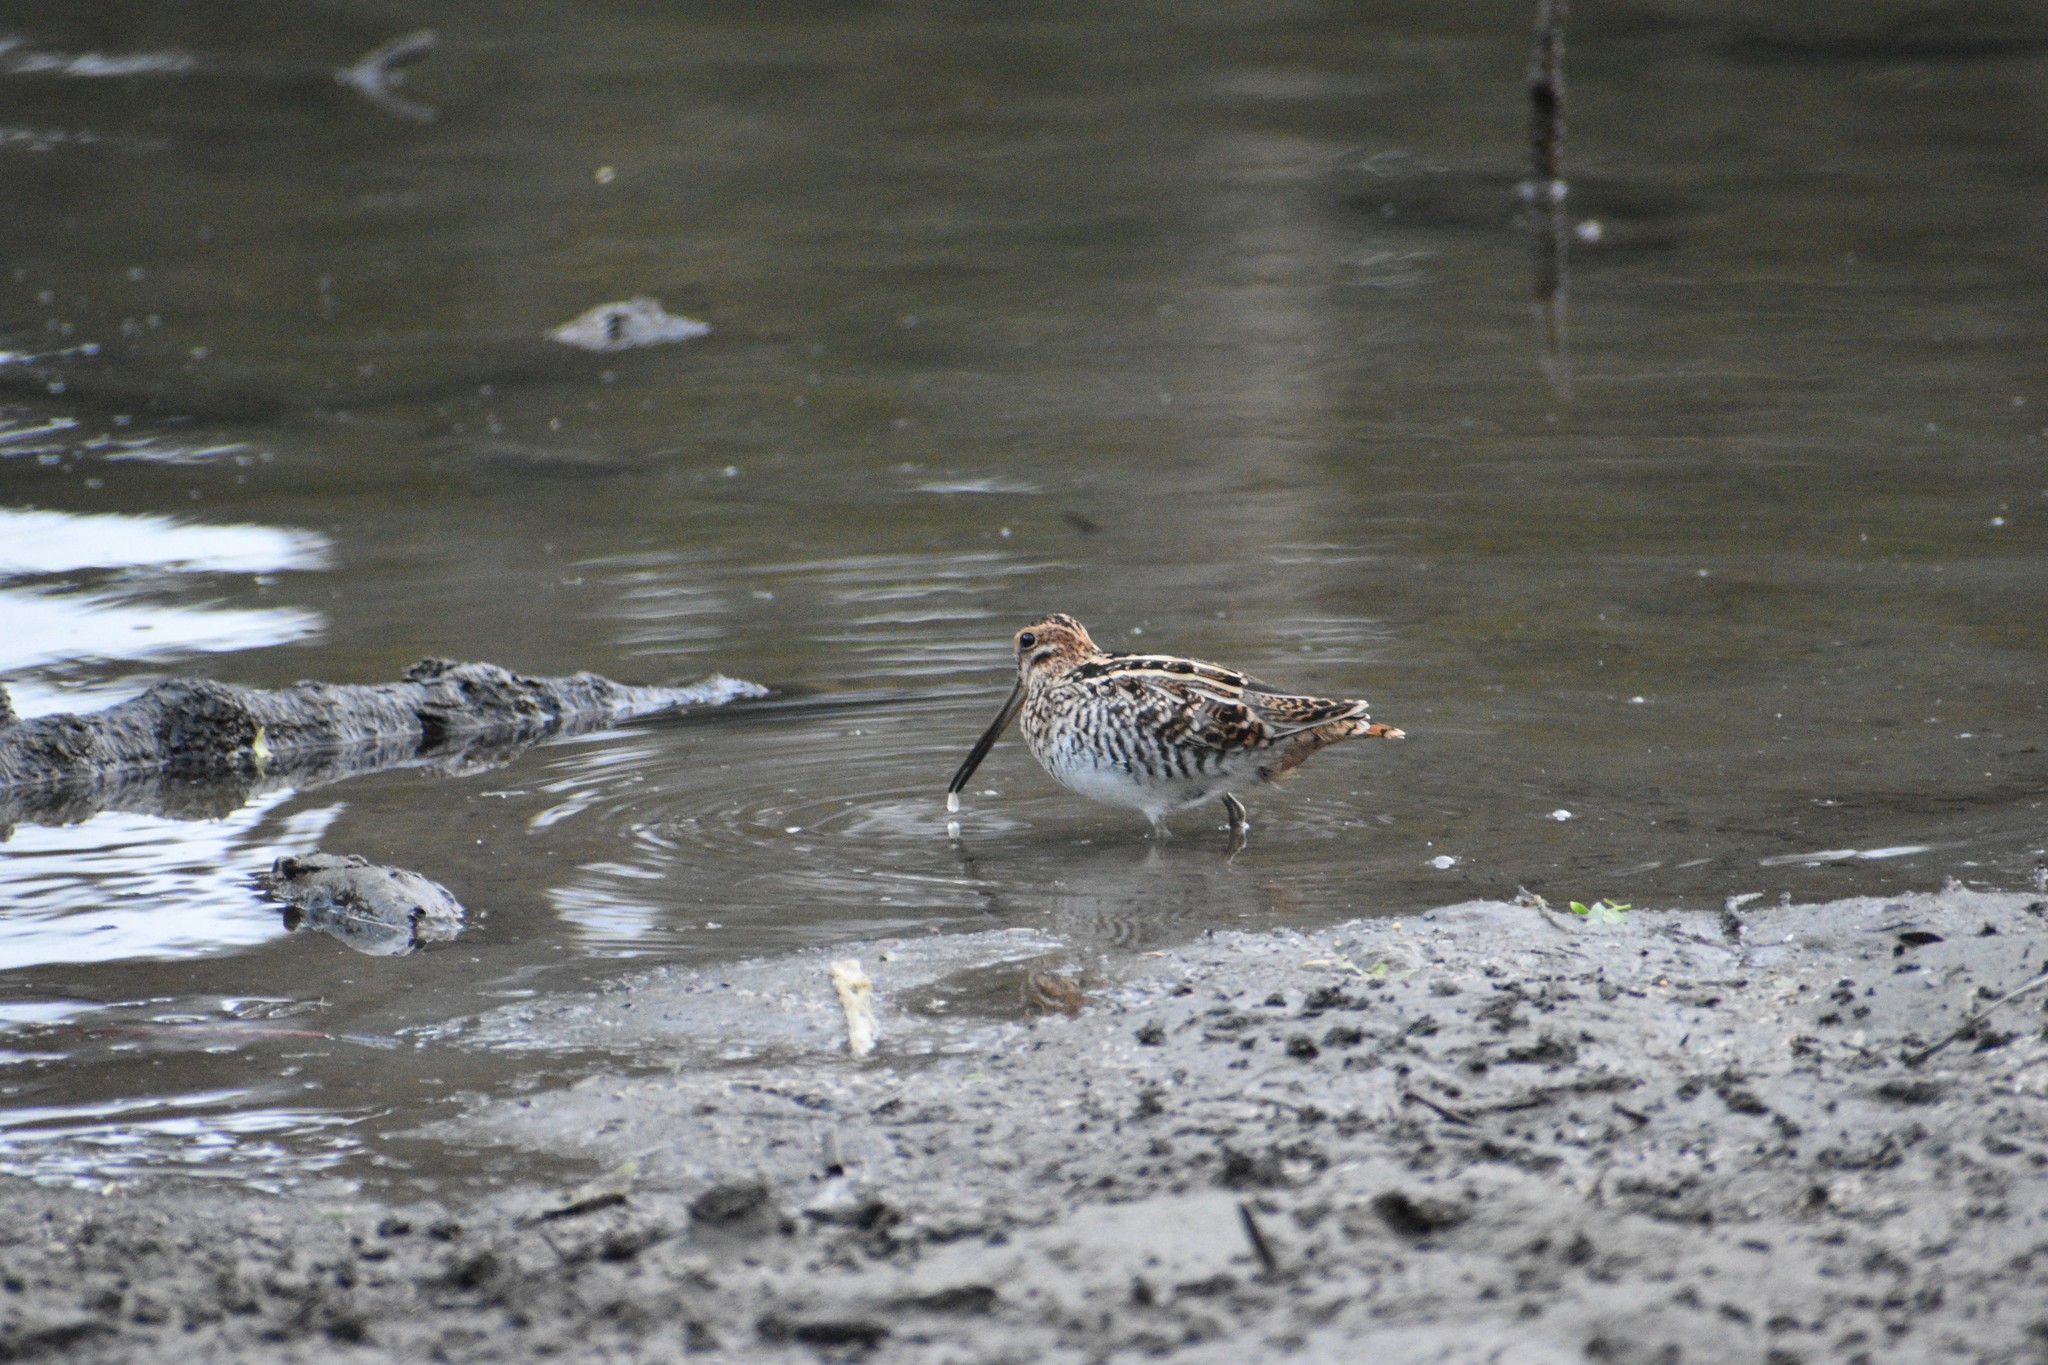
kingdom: Animalia
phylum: Chordata
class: Aves
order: Charadriiformes
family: Scolopacidae
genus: Gallinago
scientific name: Gallinago delicata
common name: Wilson's snipe
